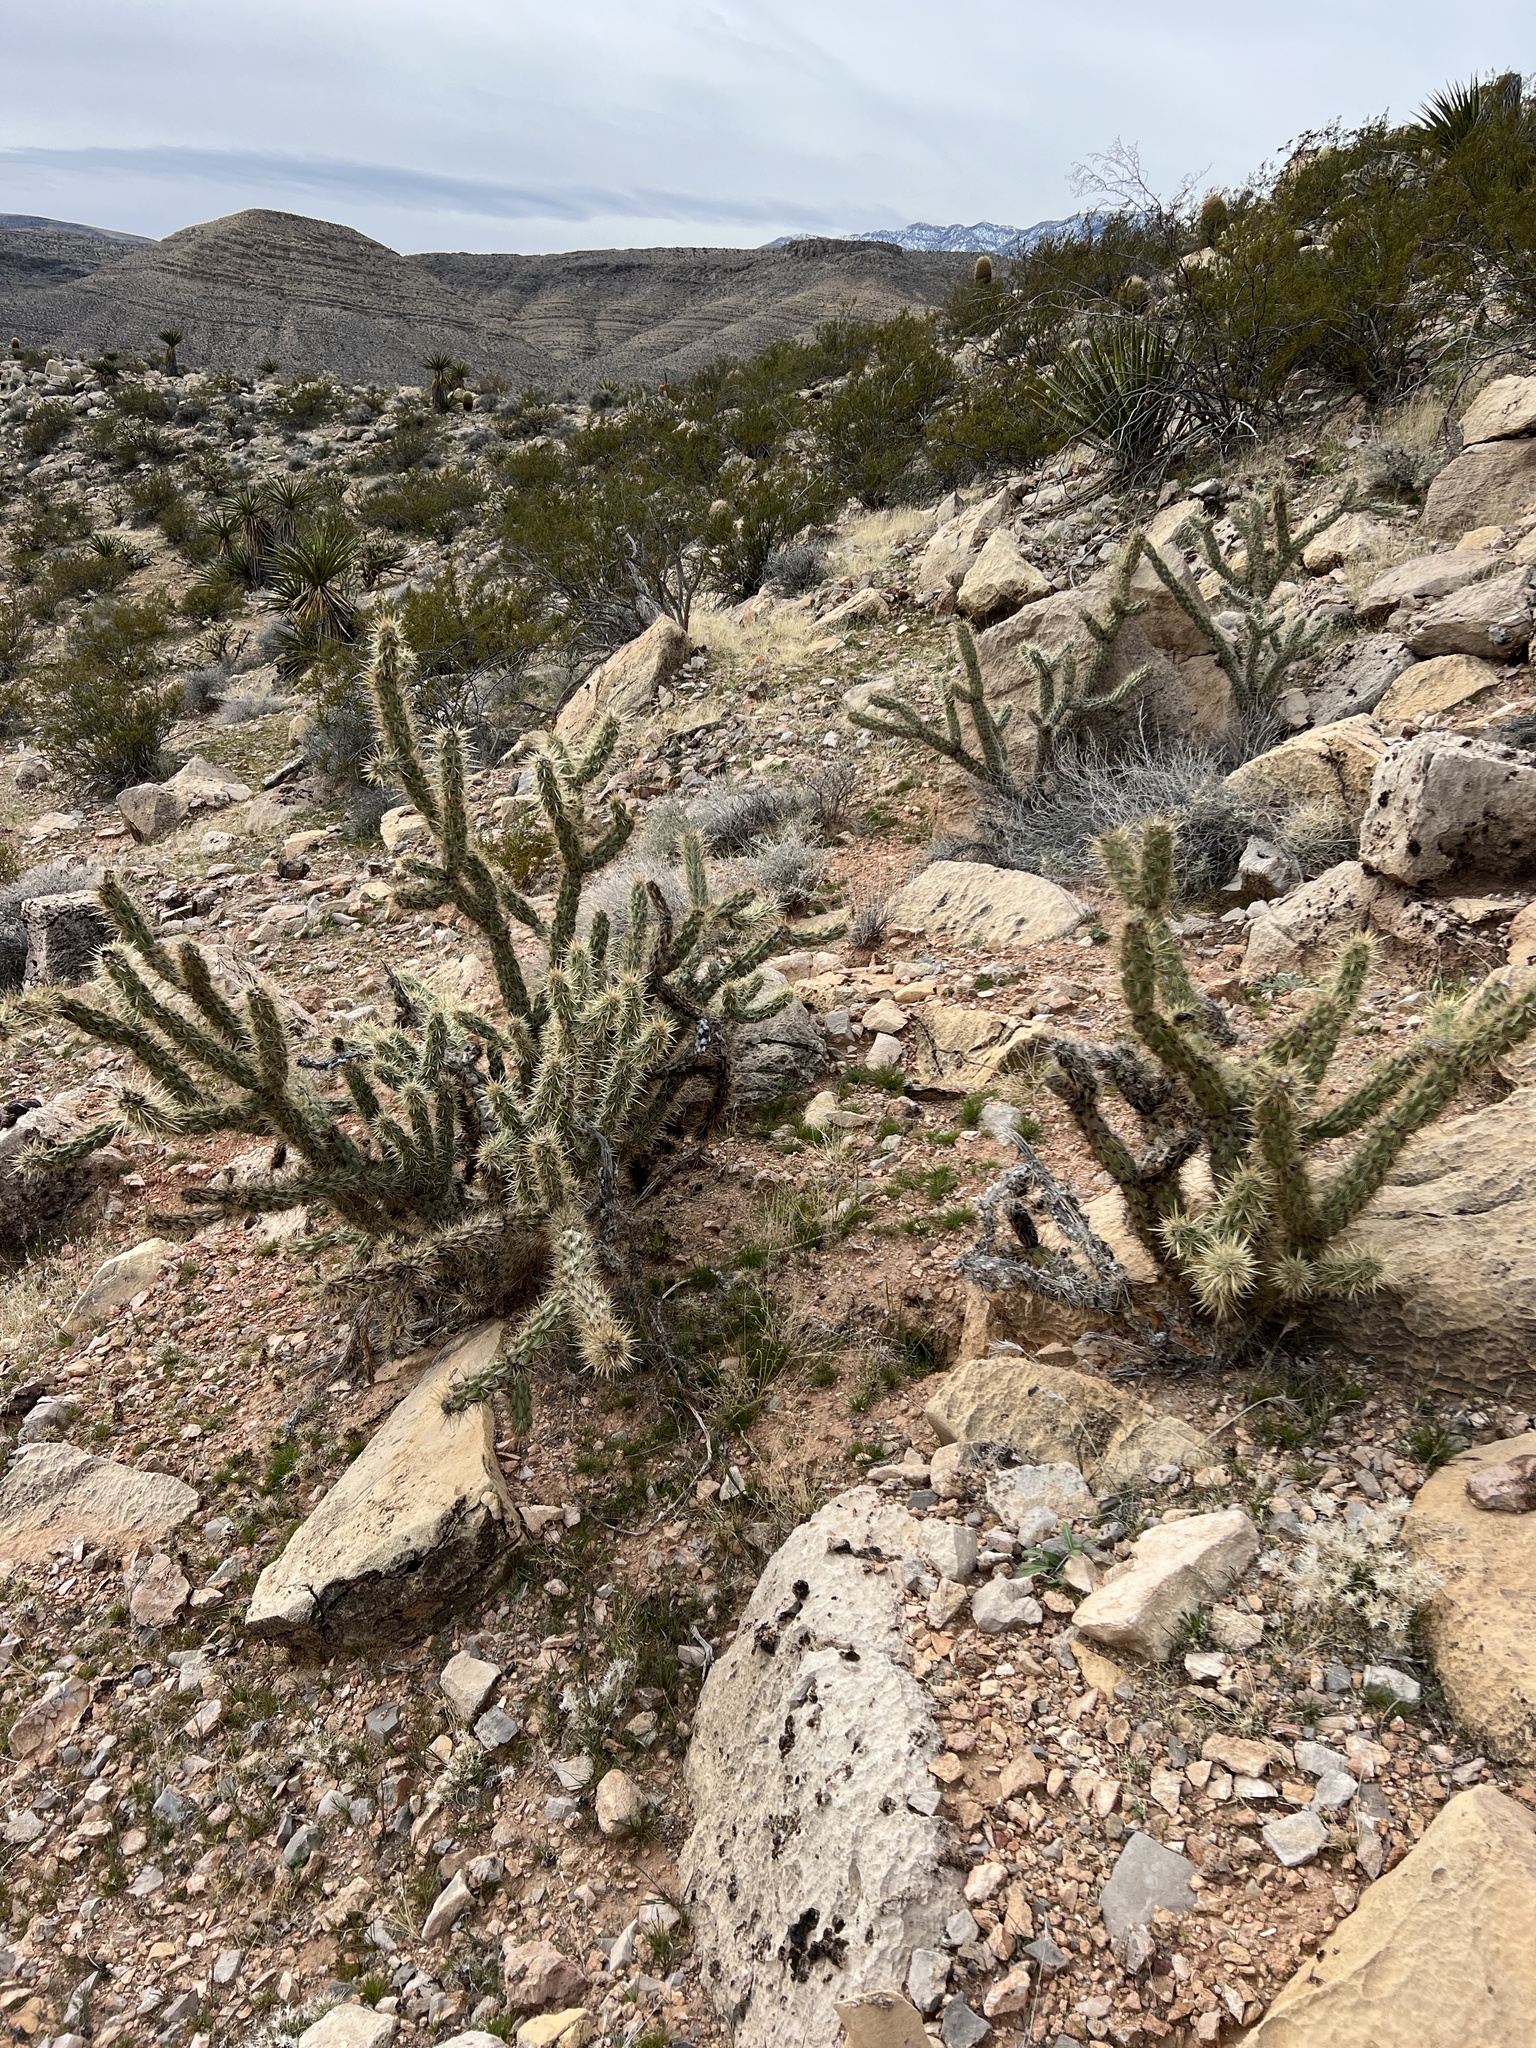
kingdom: Plantae
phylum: Tracheophyta
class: Magnoliopsida
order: Caryophyllales
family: Cactaceae
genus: Cylindropuntia
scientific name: Cylindropuntia acanthocarpa
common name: Buckhorn cholla
